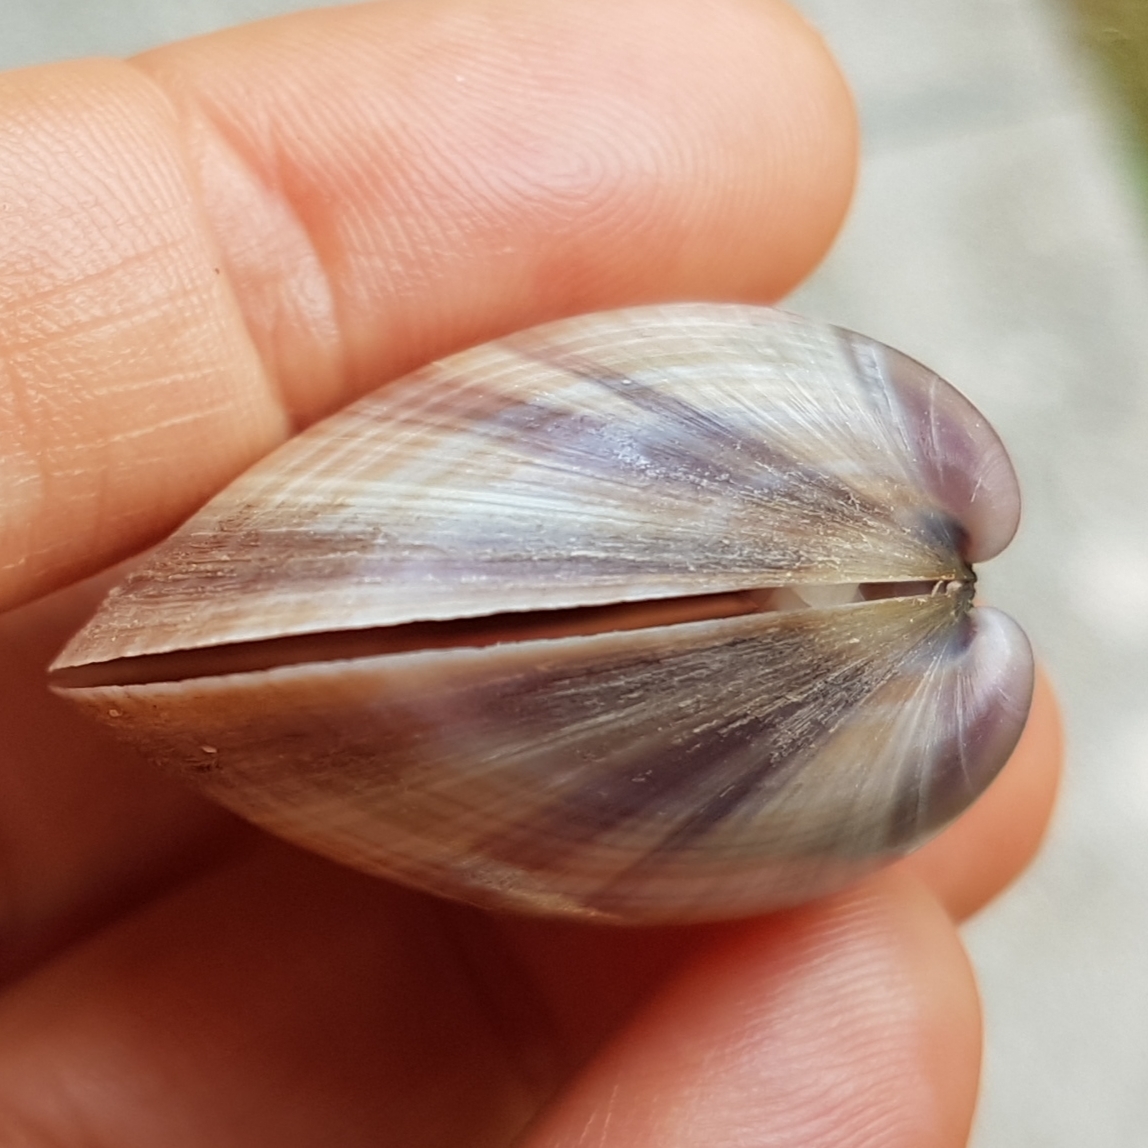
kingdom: Animalia
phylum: Mollusca
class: Bivalvia
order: Venerida
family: Mactridae
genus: Mactra
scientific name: Mactra stultorum
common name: Rayed trough shell
